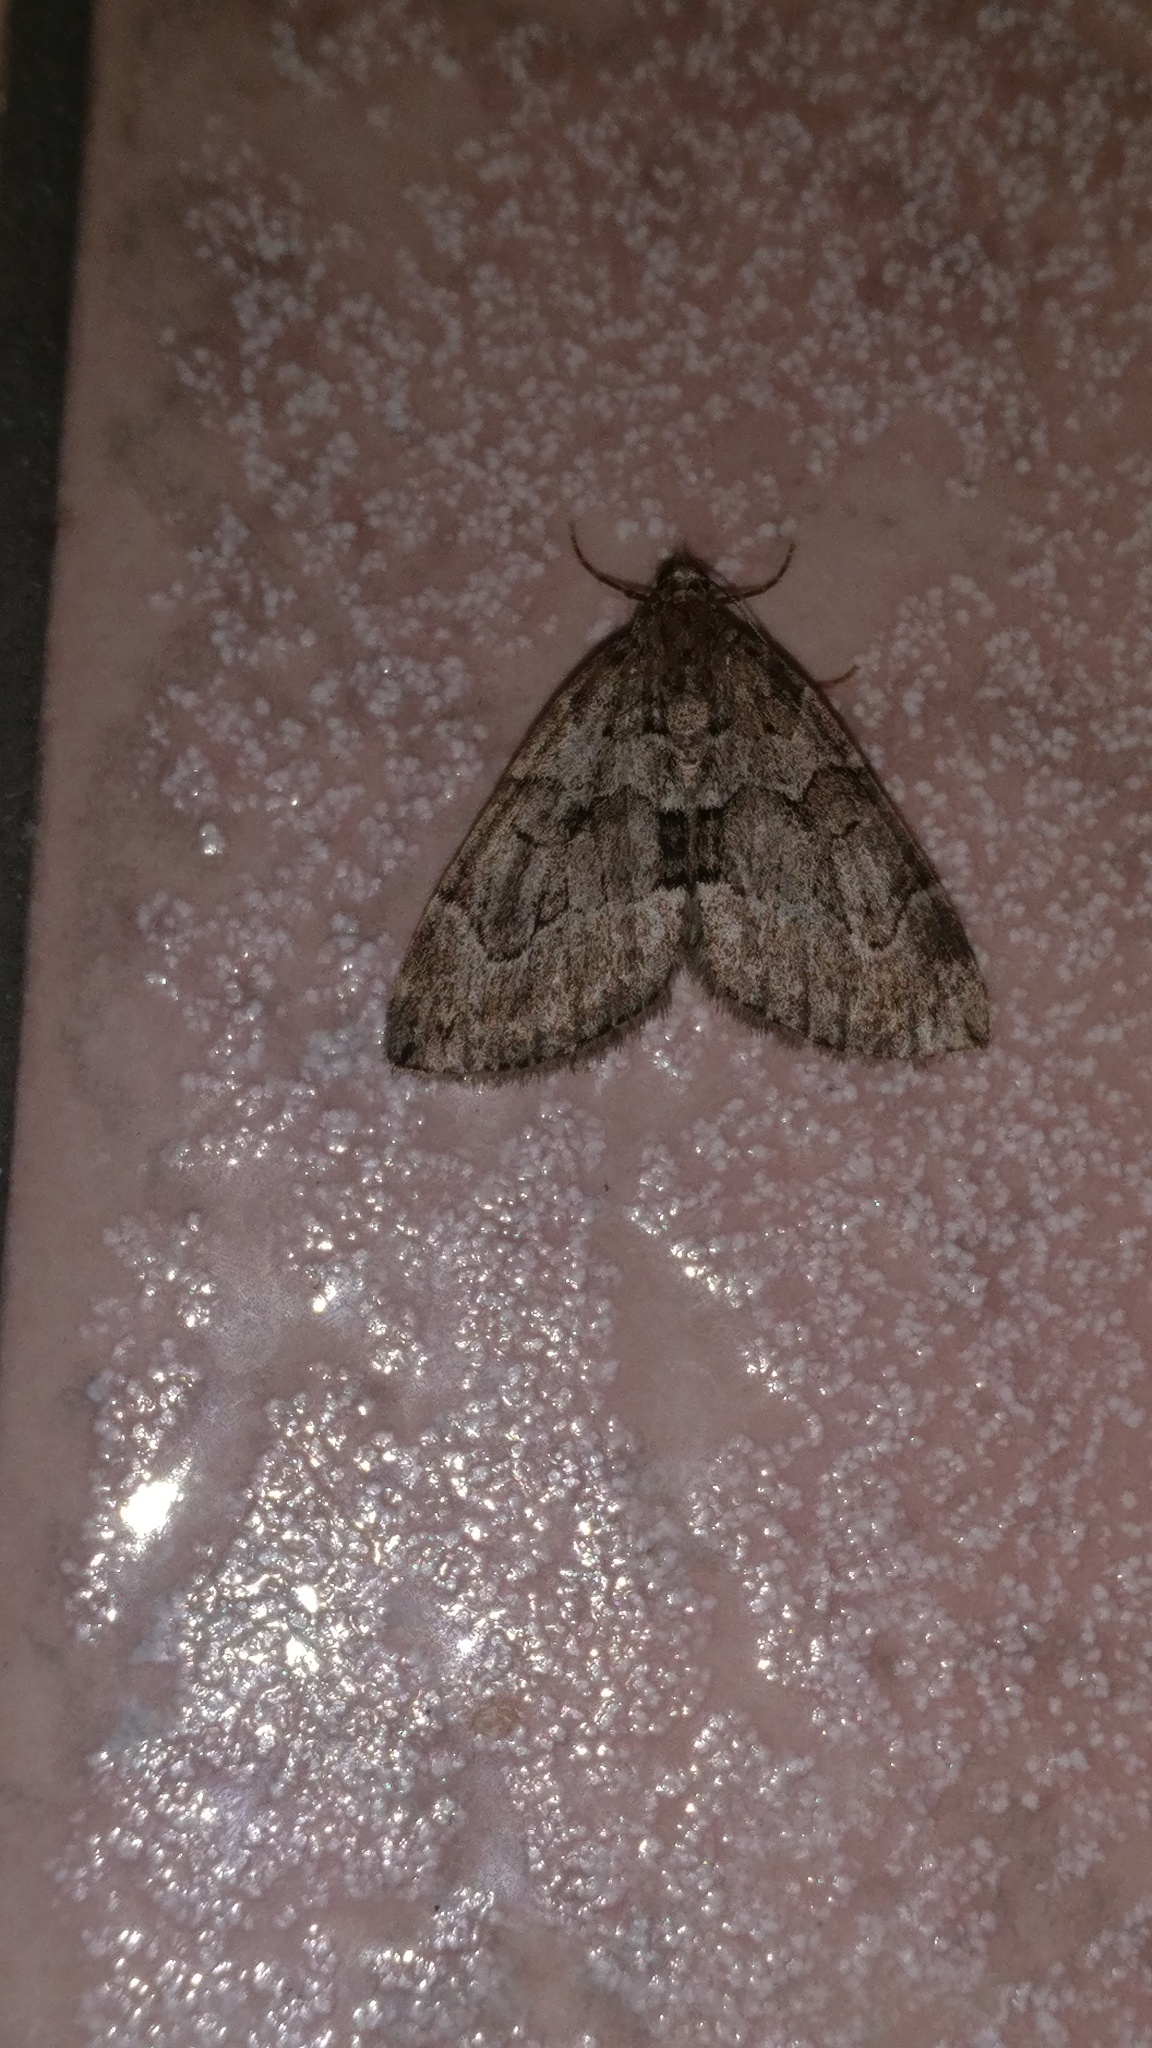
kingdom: Animalia
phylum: Arthropoda
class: Insecta
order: Lepidoptera
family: Geometridae
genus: Thera
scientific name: Thera cognata
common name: Chestnut-coloured carpet
